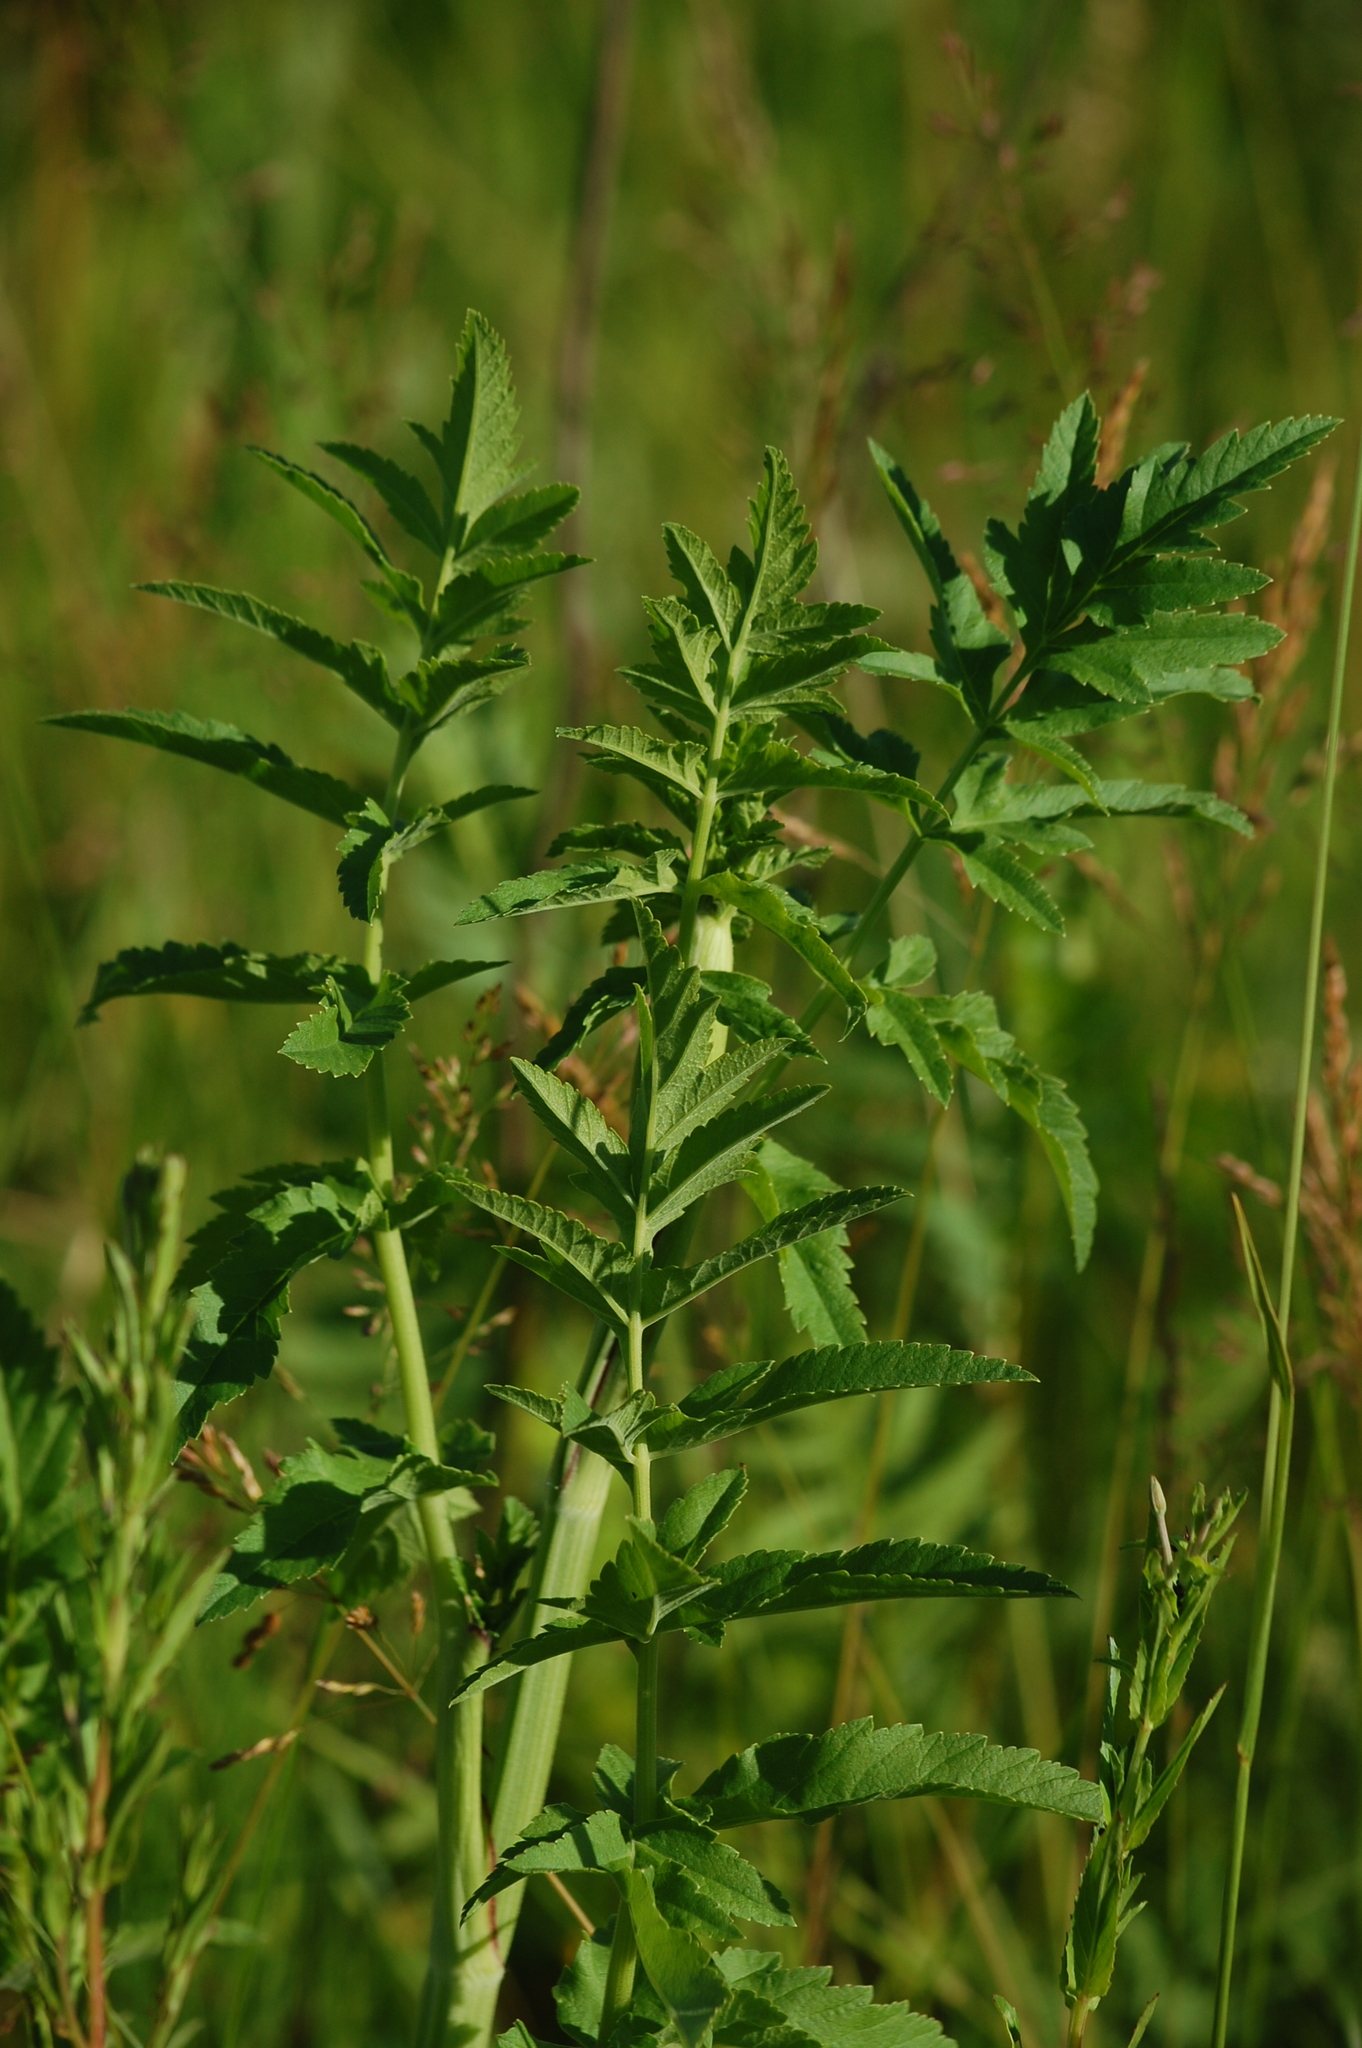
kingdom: Plantae
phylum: Tracheophyta
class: Magnoliopsida
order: Apiales
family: Apiaceae
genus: Pastinaca
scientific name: Pastinaca sativa
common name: Wild parsnip
